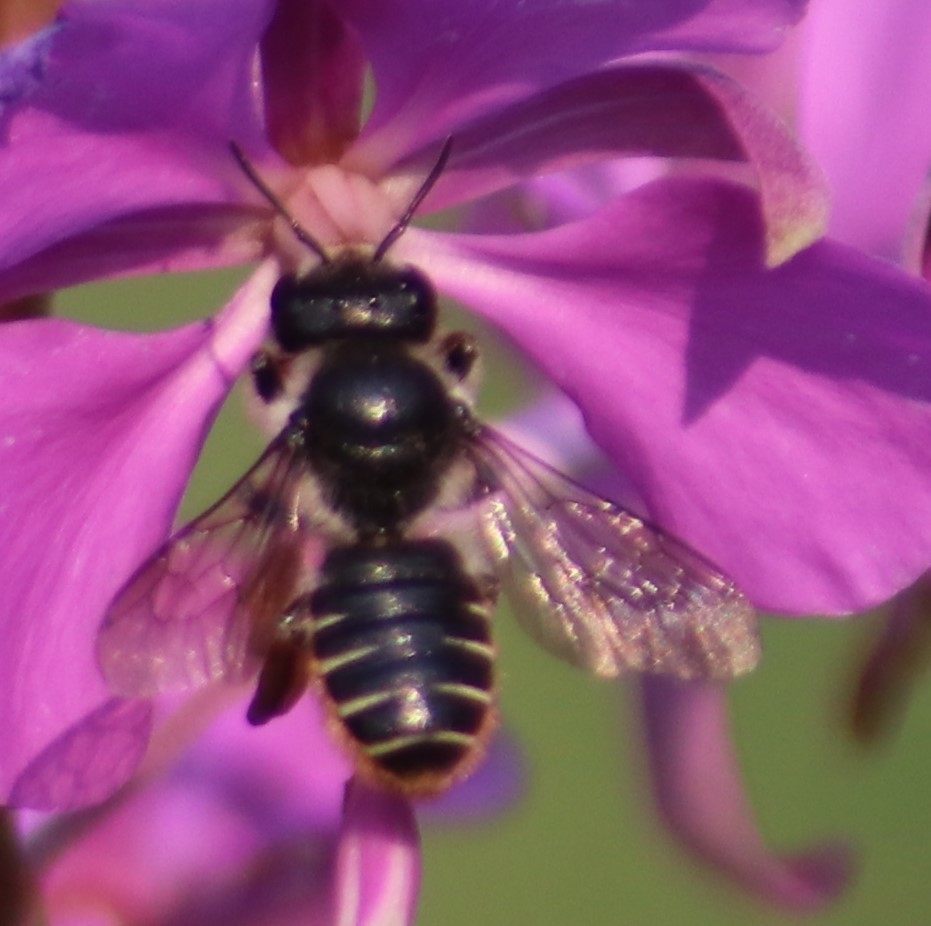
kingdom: Animalia
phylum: Arthropoda
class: Insecta
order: Hymenoptera
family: Megachilidae
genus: Megachile
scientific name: Megachile relativa
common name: Golden-tailed leafcutter
